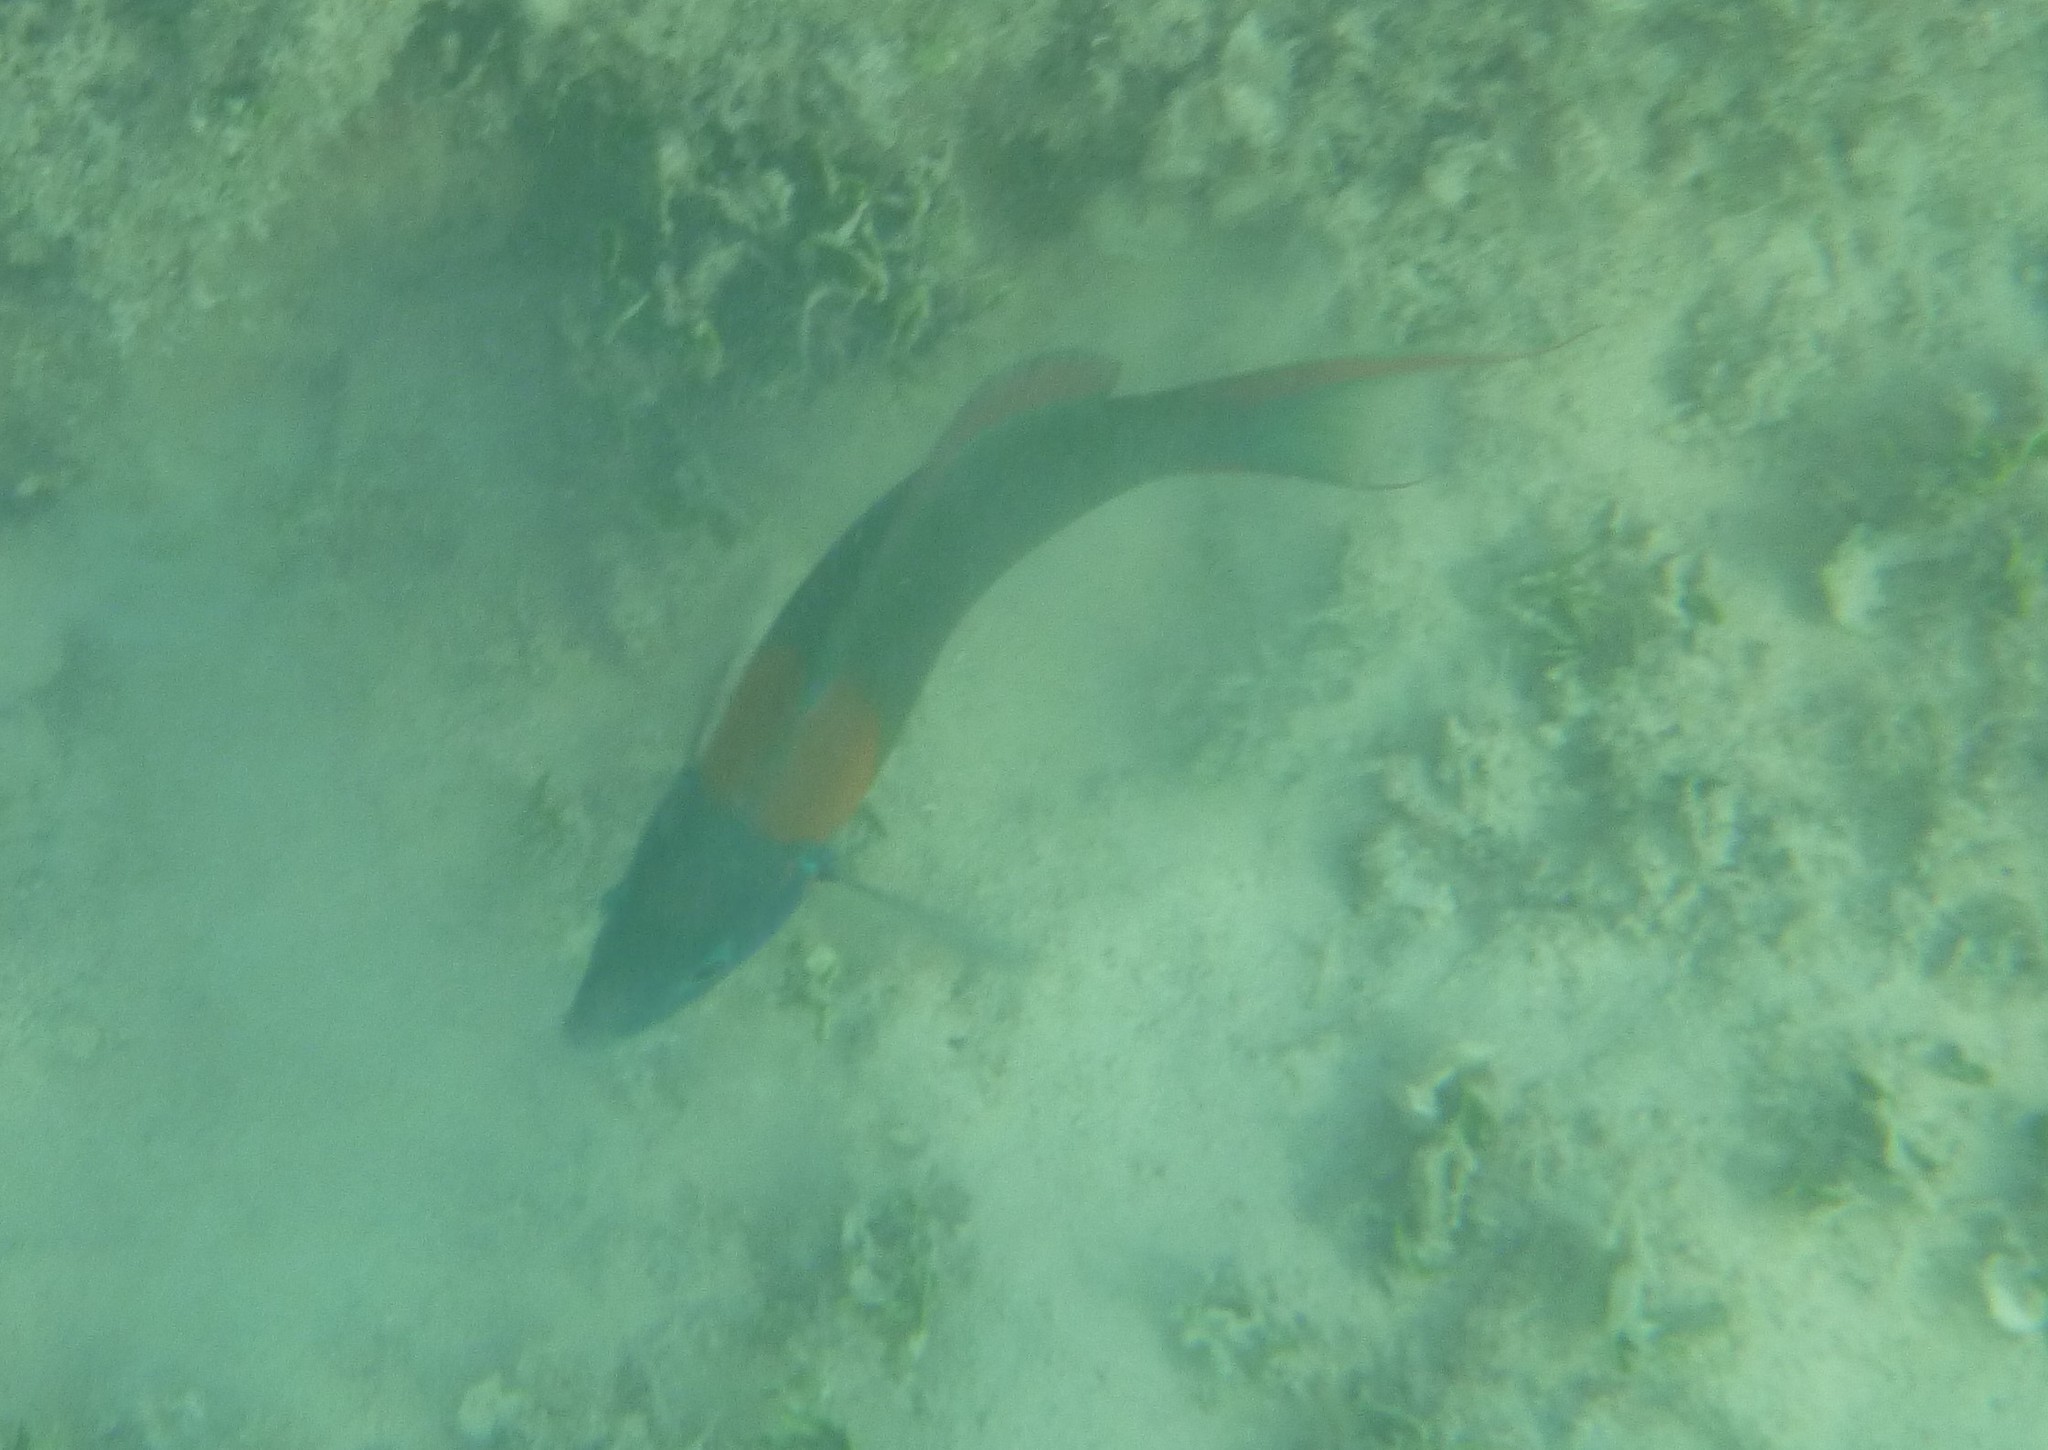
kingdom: Animalia
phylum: Chordata
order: Perciformes
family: Labridae
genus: Thalassoma
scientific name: Thalassoma duperrey
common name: Saddle wrasse
